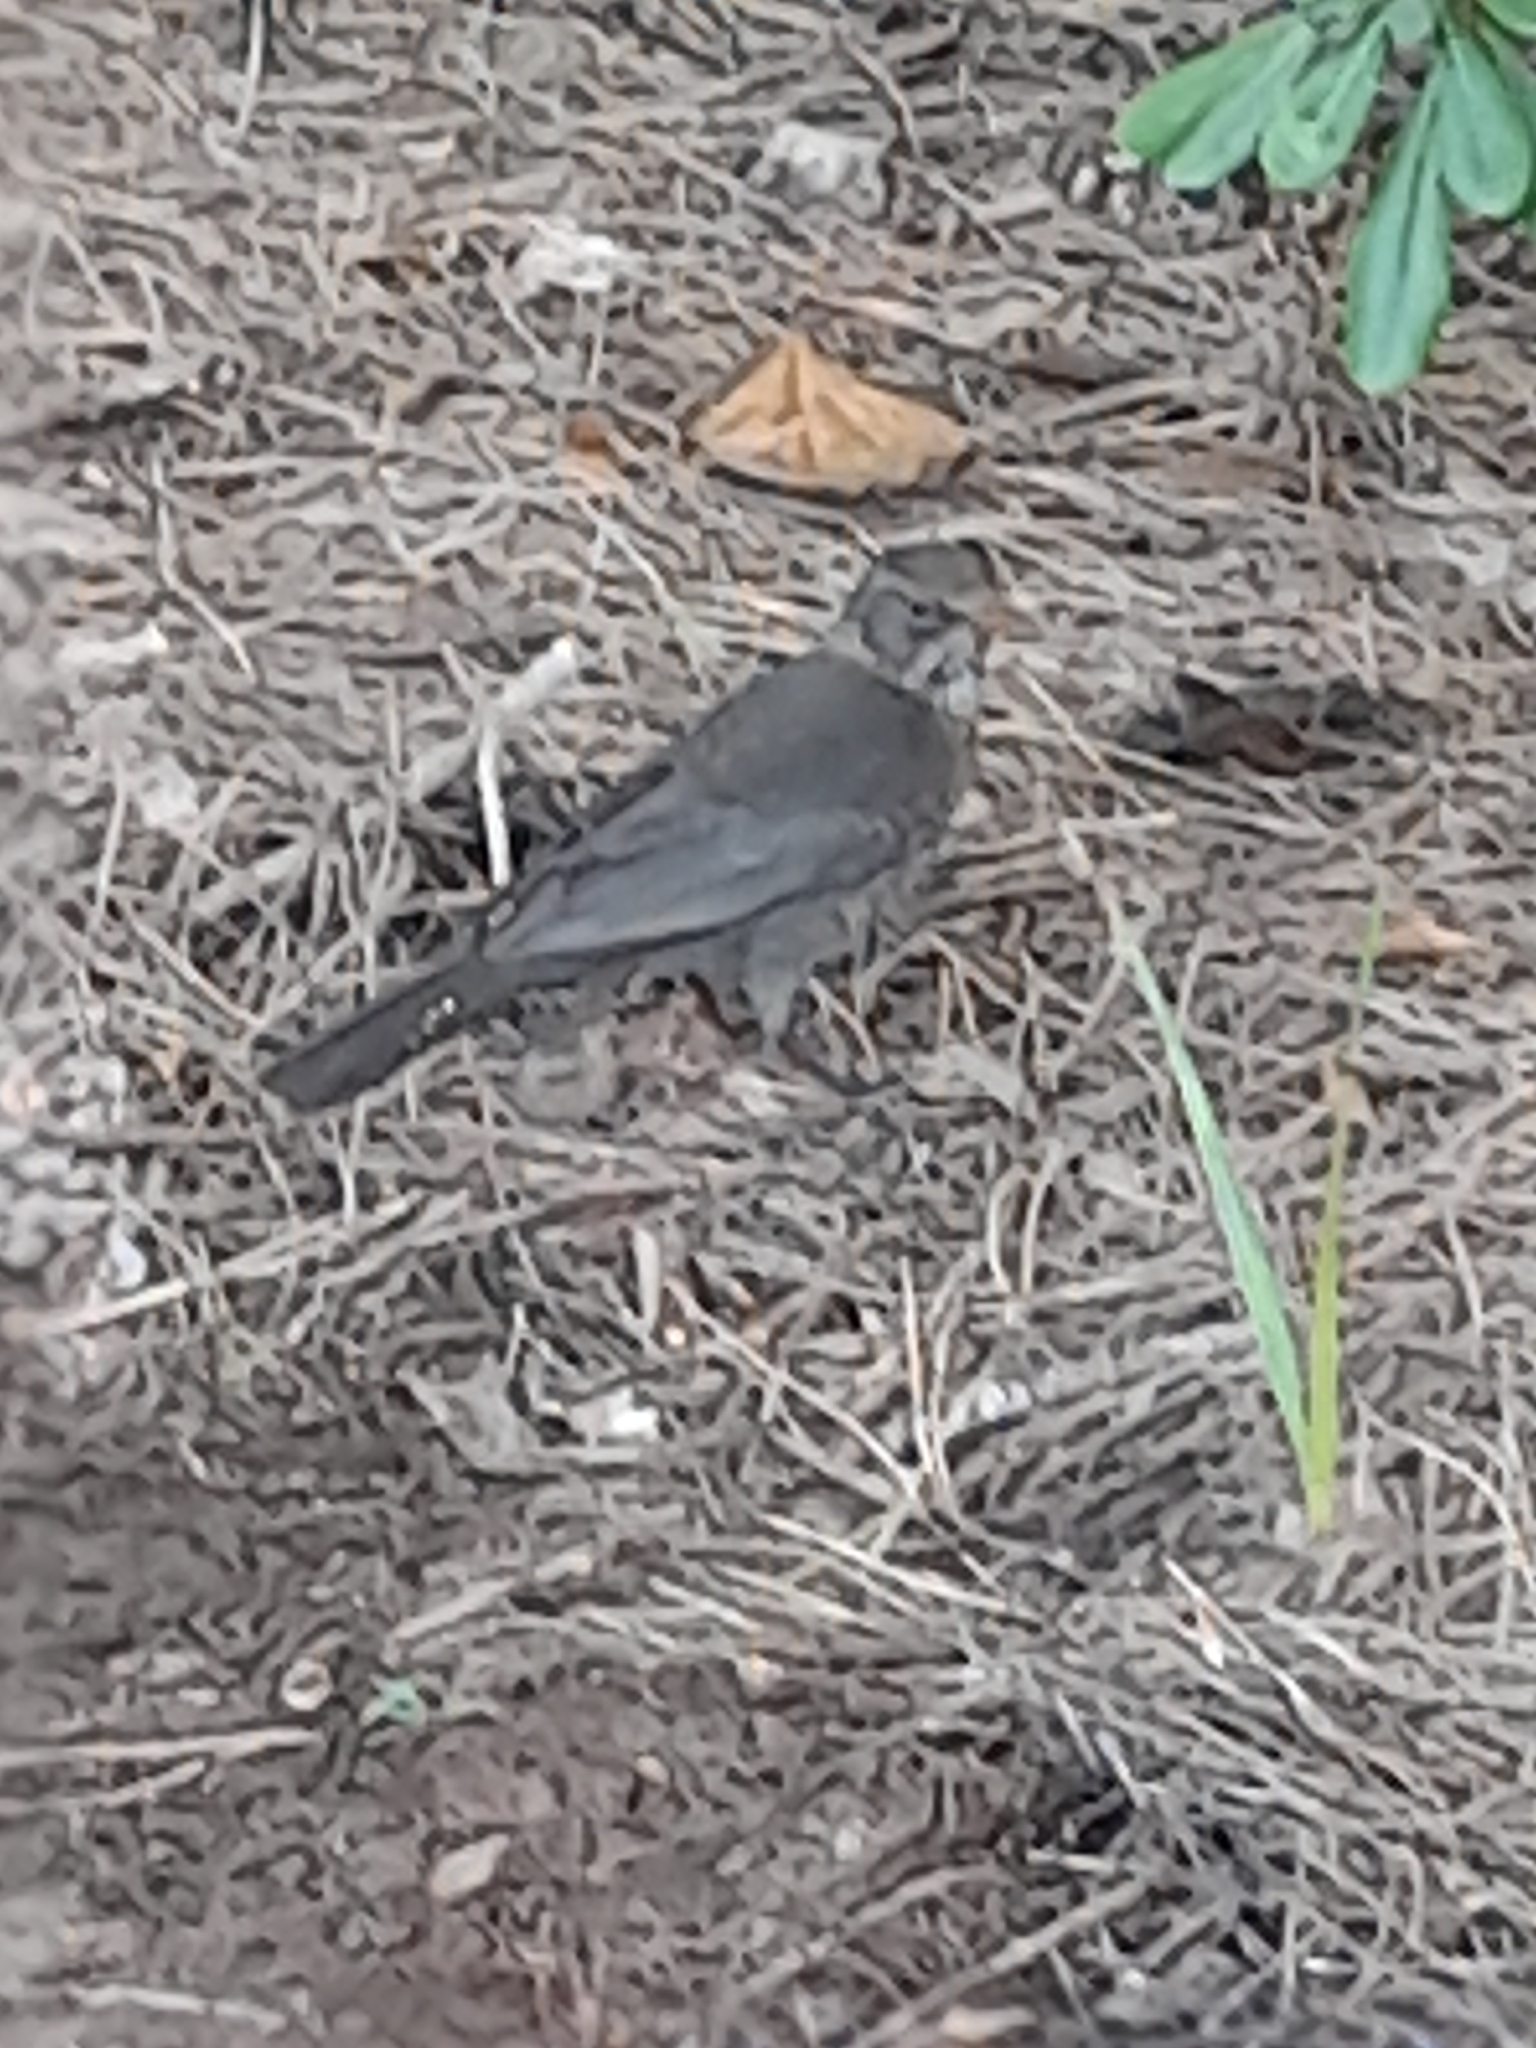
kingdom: Animalia
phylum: Chordata
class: Aves
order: Passeriformes
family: Turdidae
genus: Turdus
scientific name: Turdus pilaris
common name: Fieldfare
